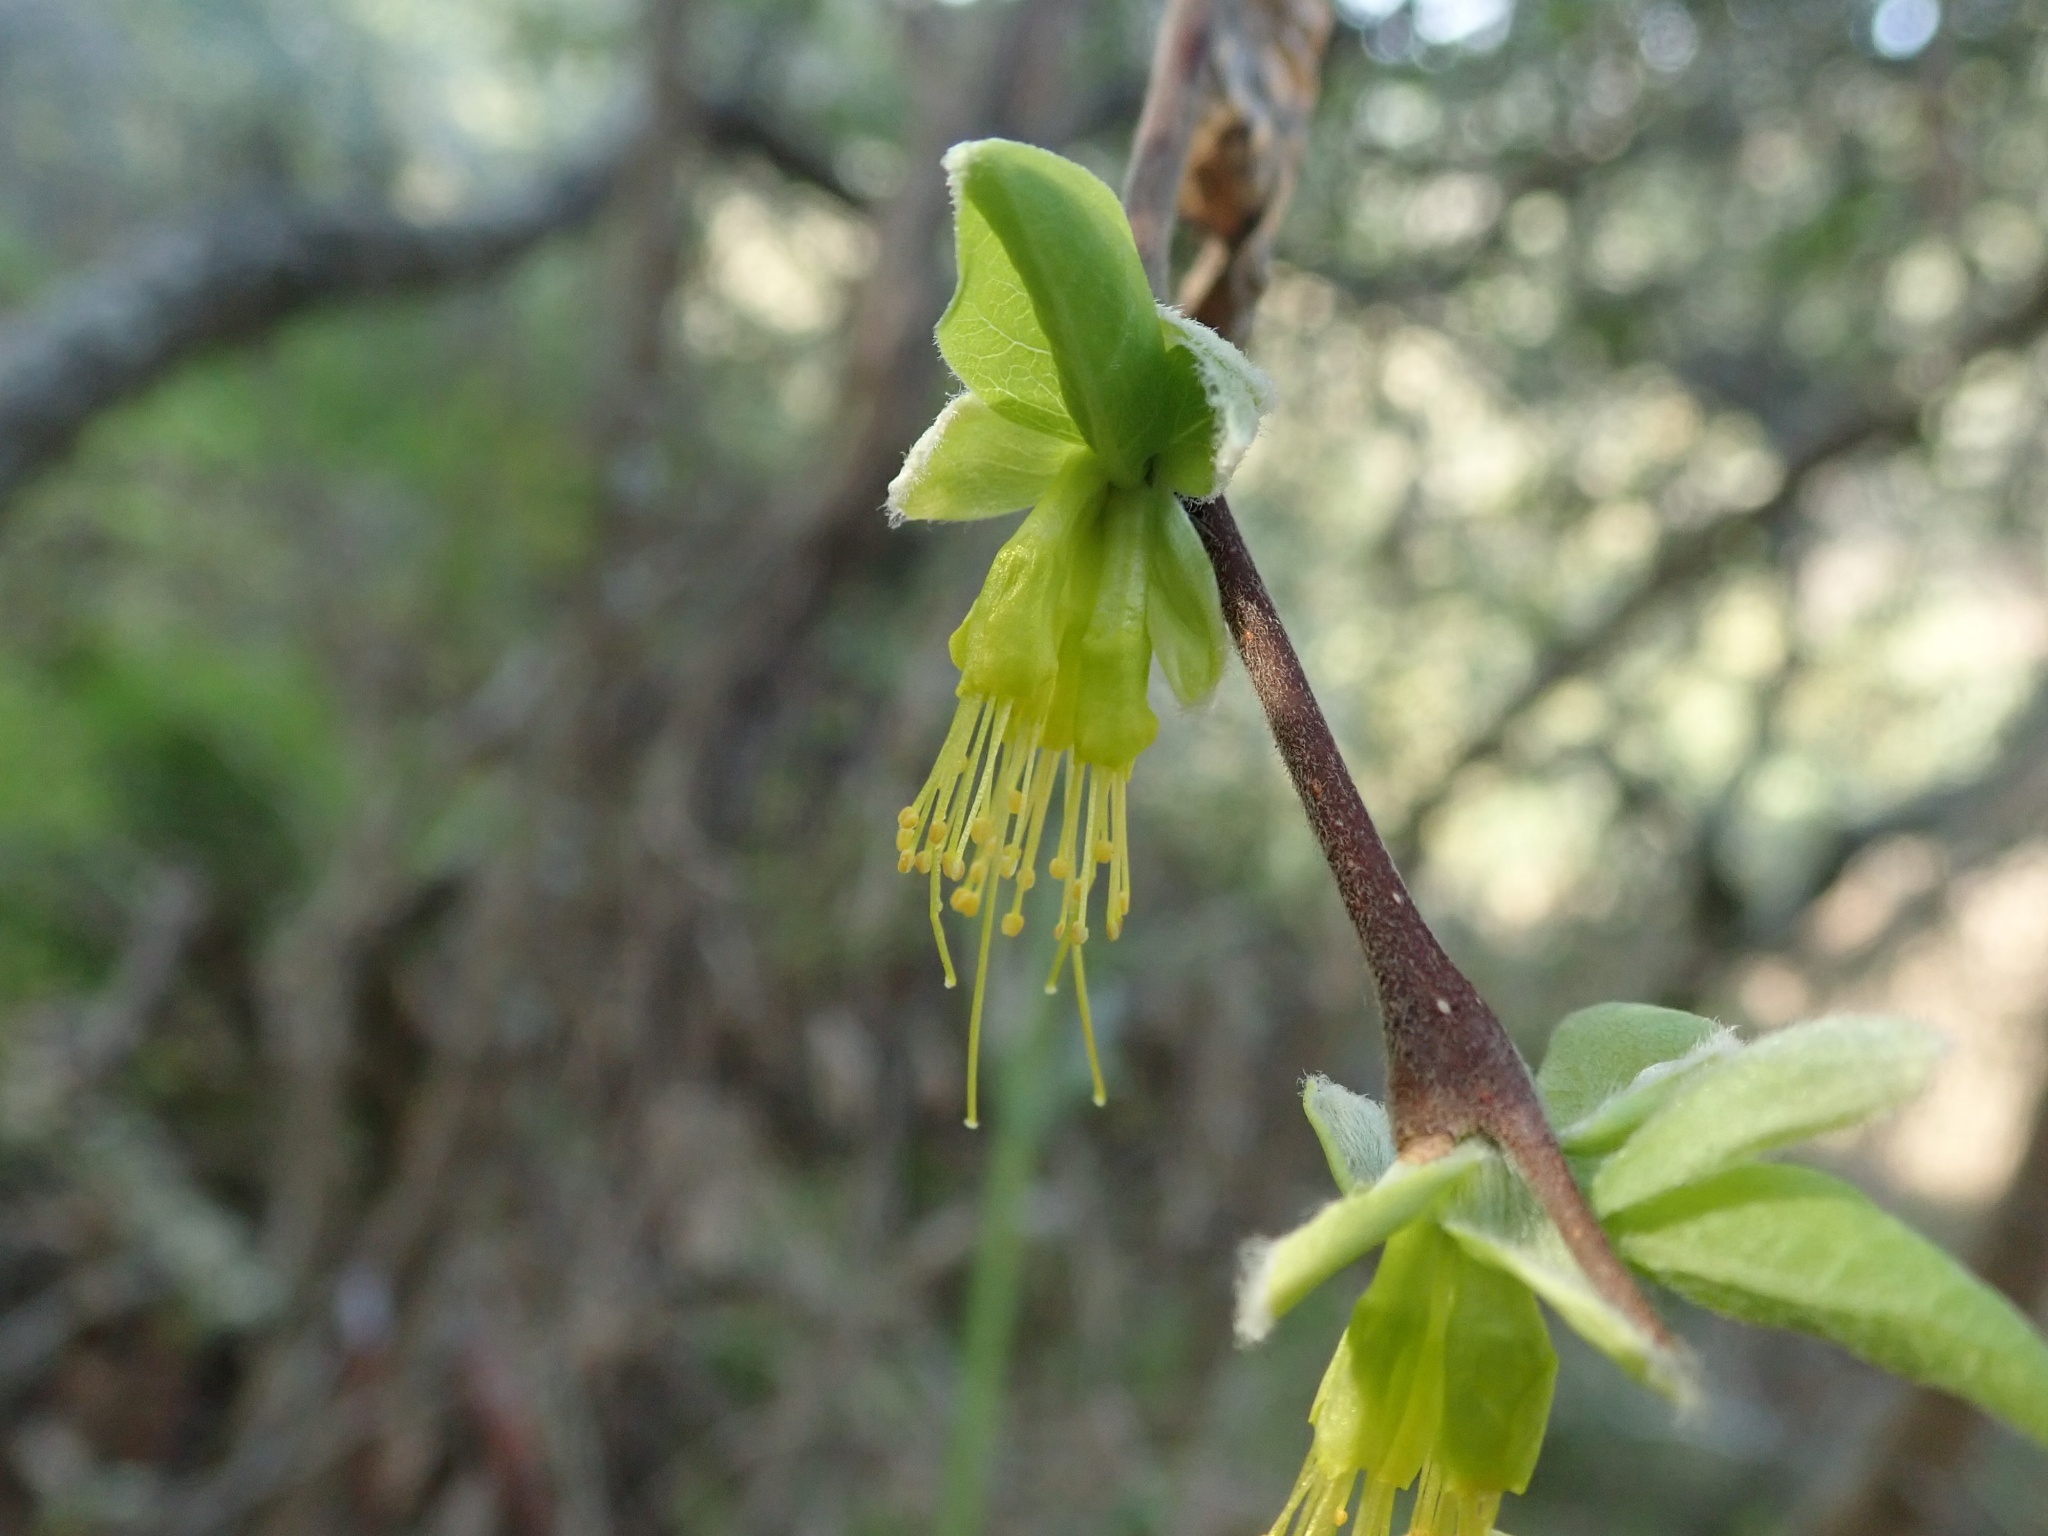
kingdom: Plantae
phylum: Tracheophyta
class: Magnoliopsida
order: Malvales
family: Thymelaeaceae
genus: Dirca
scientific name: Dirca occidentalis
